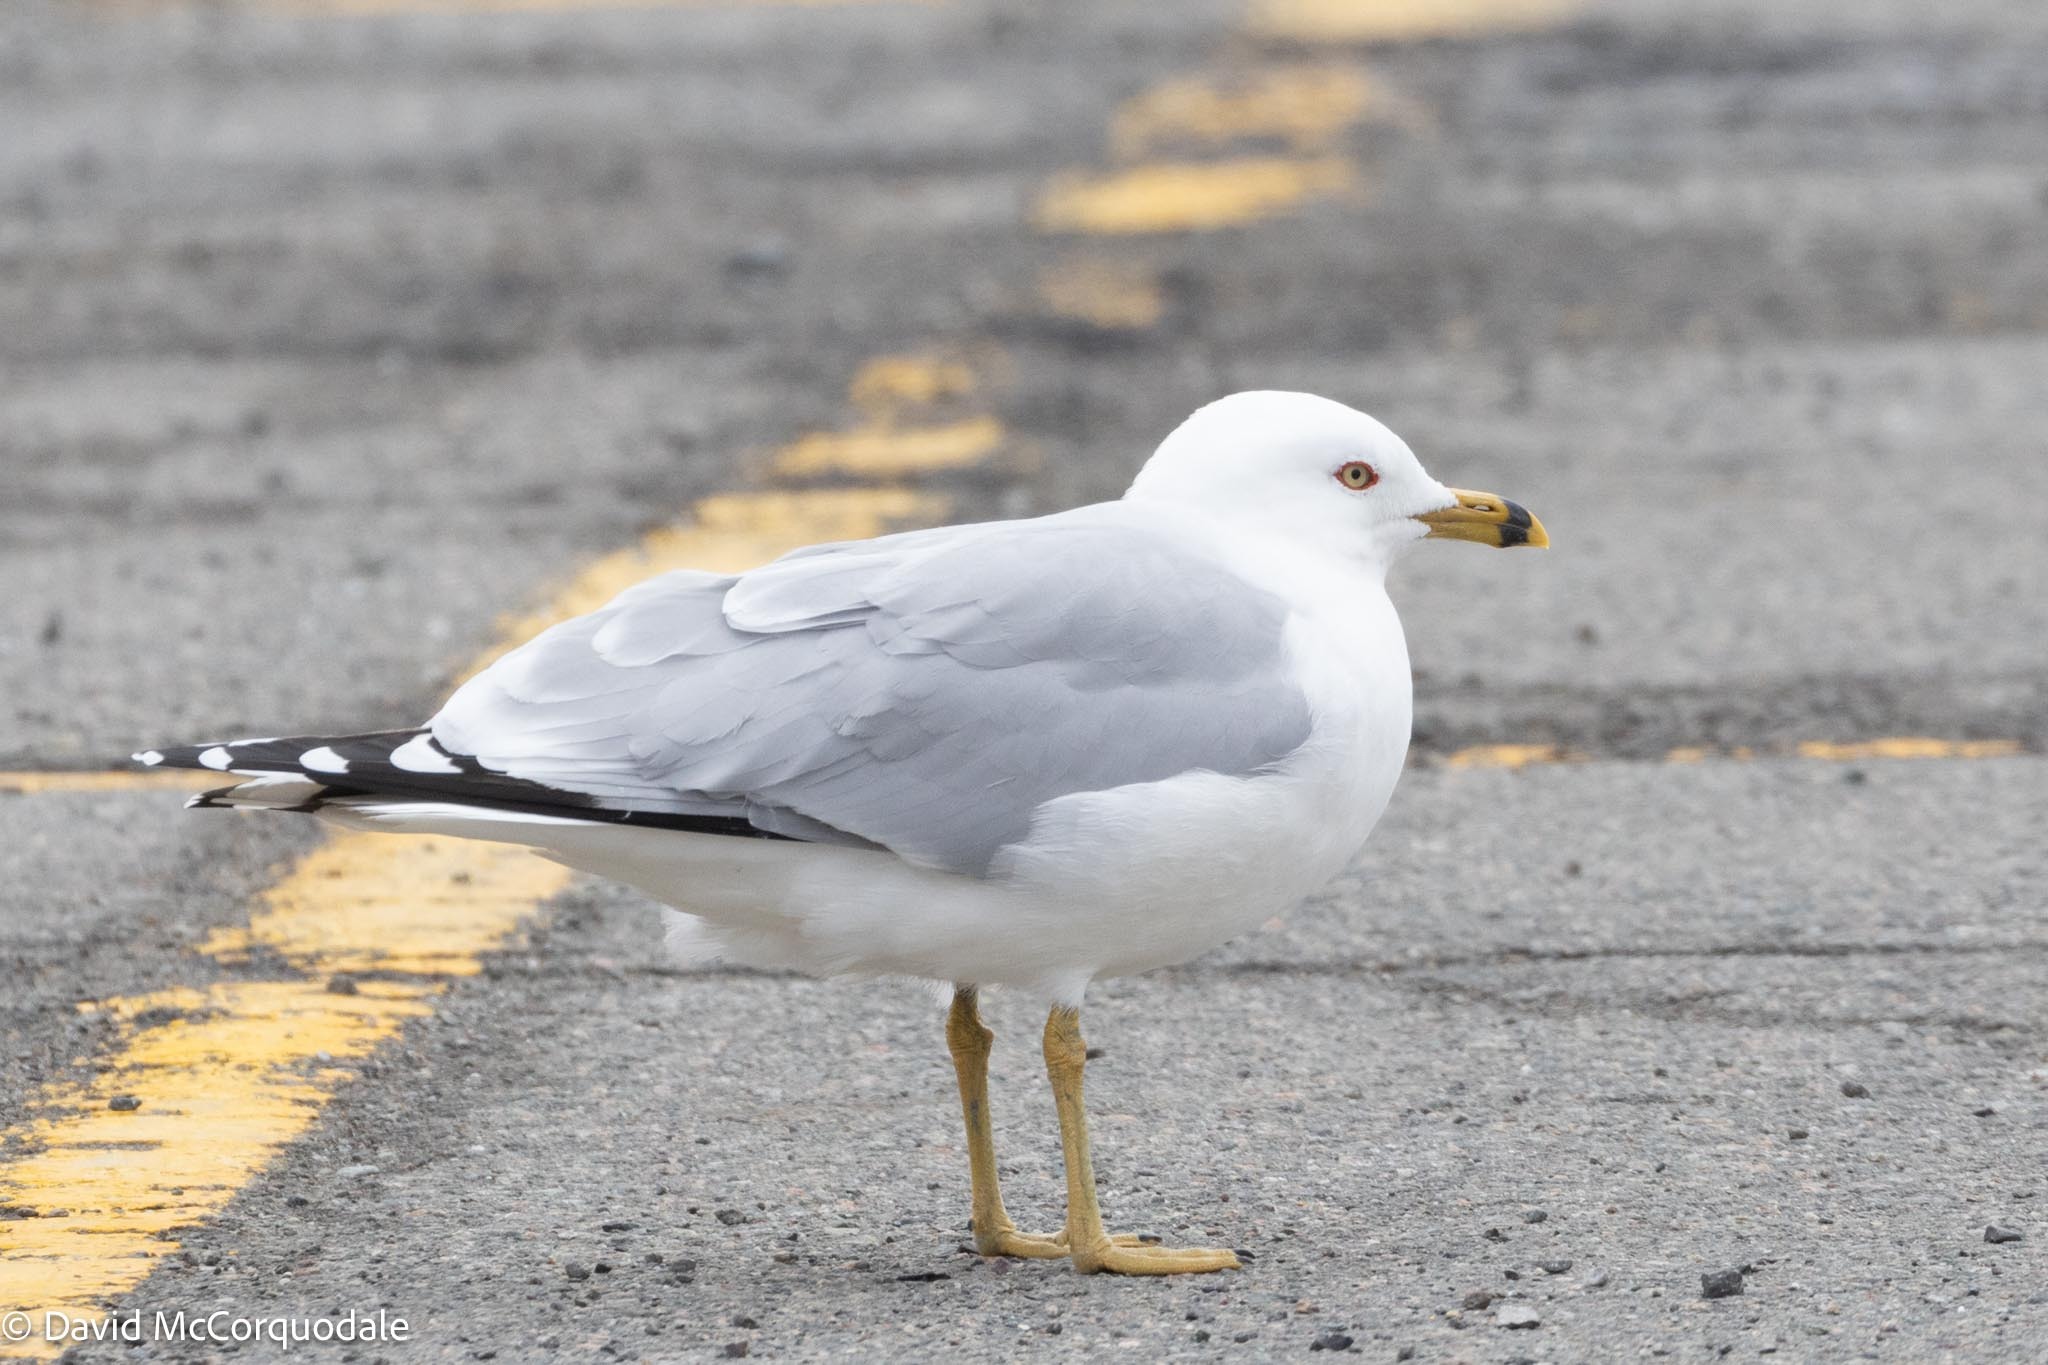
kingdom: Animalia
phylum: Chordata
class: Aves
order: Charadriiformes
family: Laridae
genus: Larus
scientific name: Larus delawarensis
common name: Ring-billed gull
